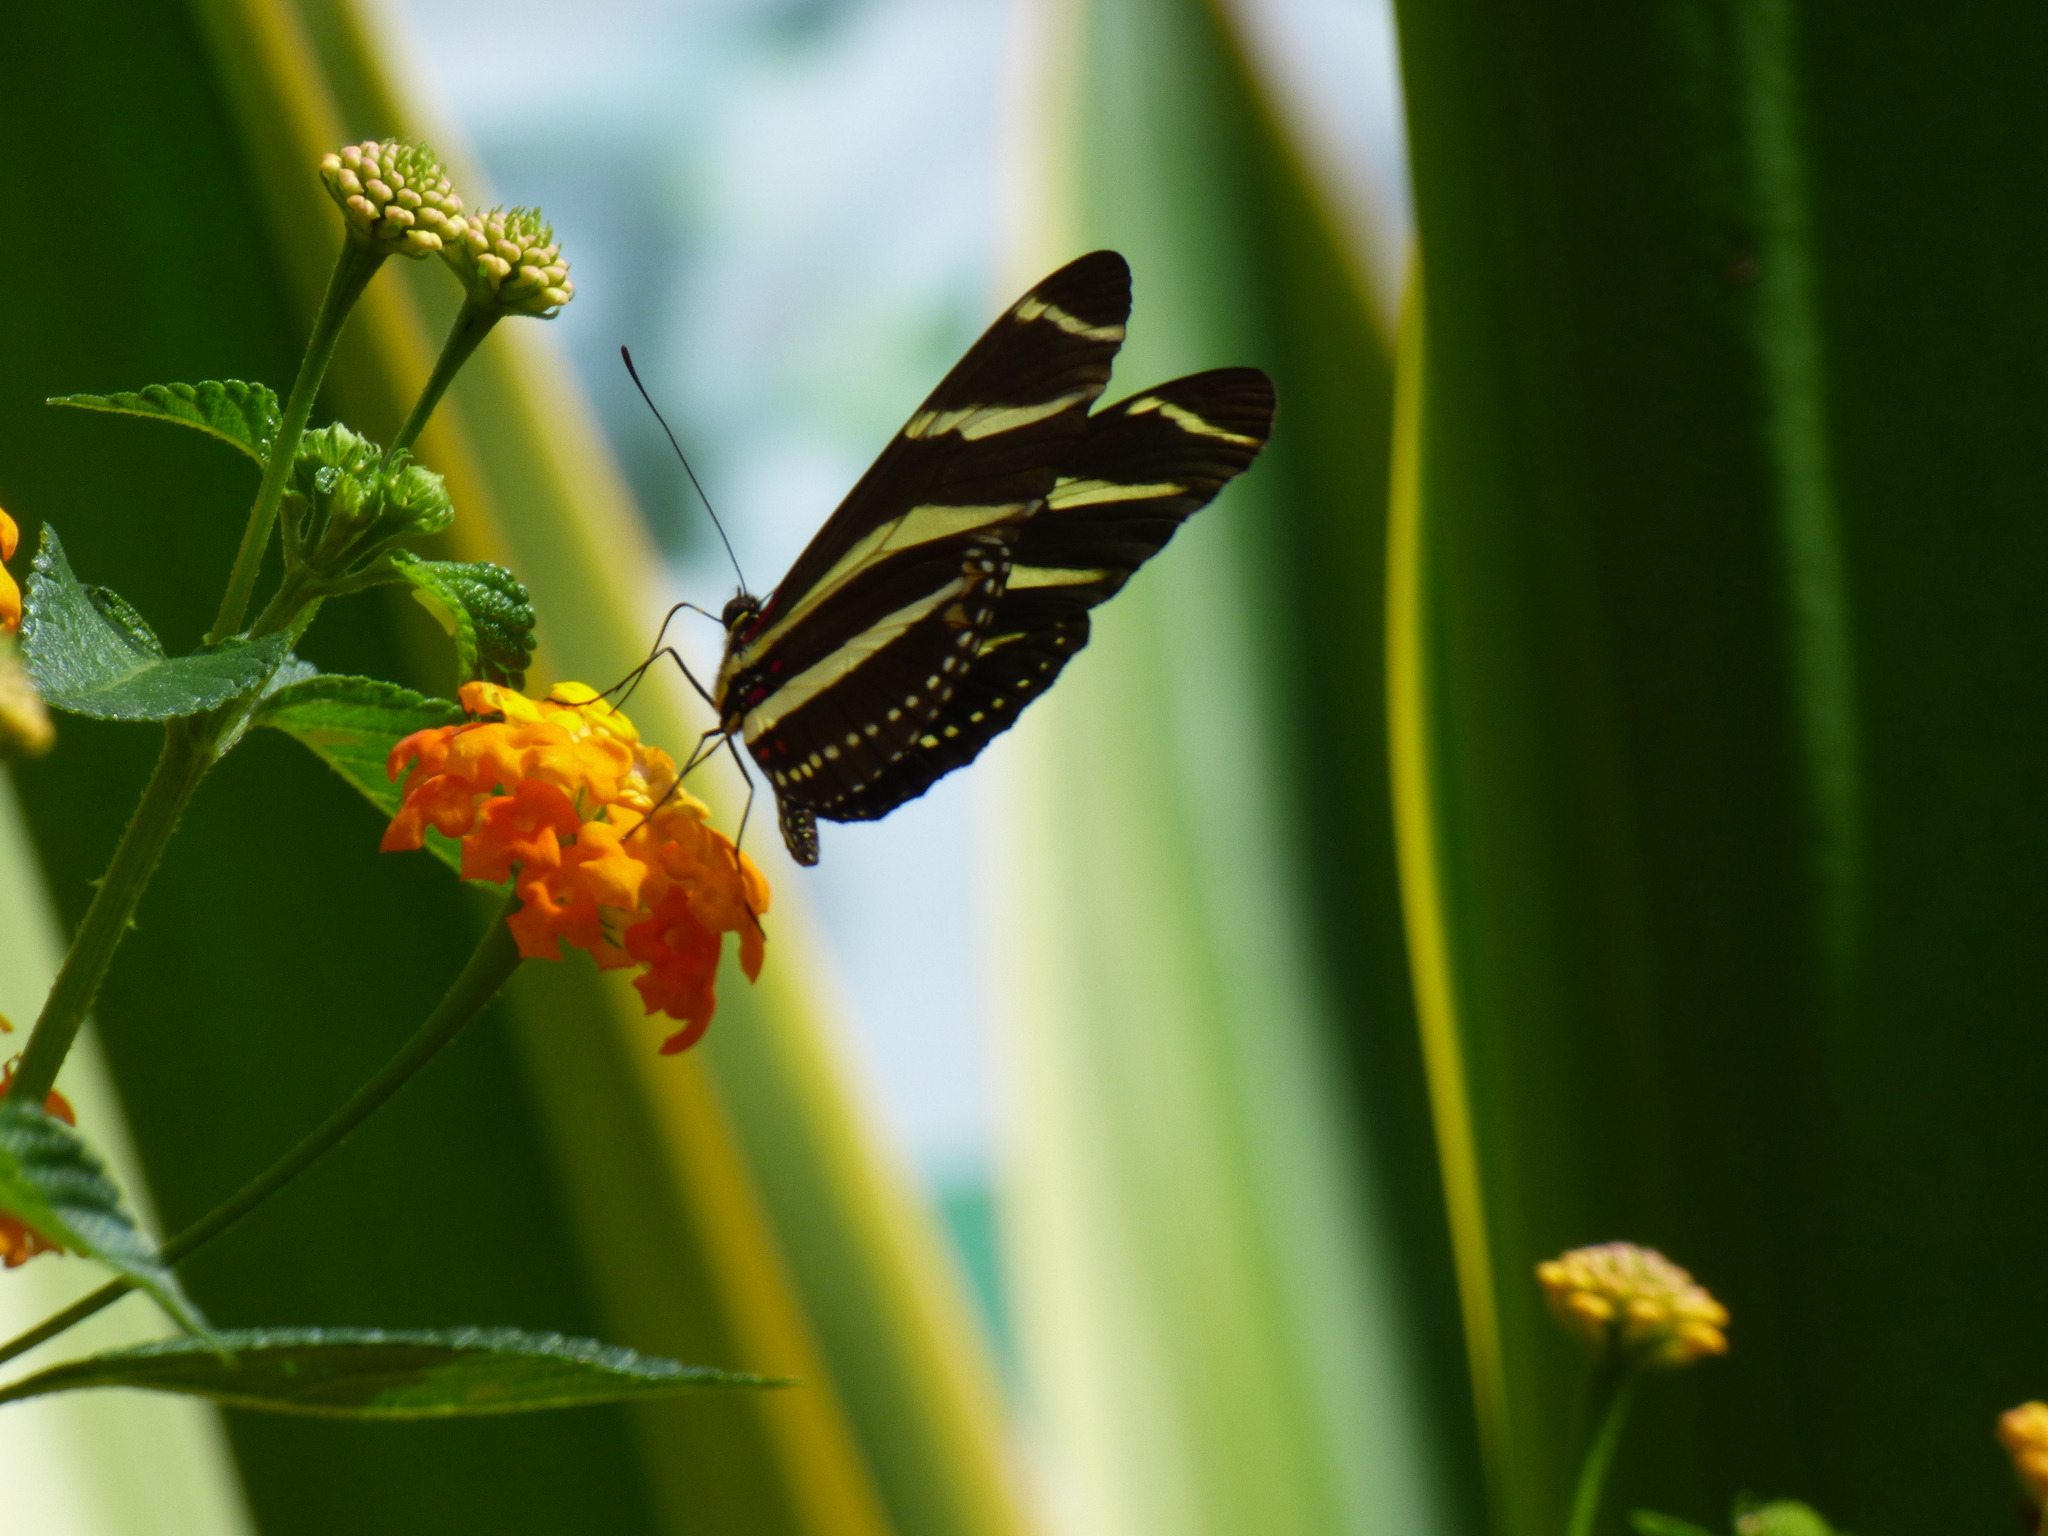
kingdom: Animalia
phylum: Arthropoda
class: Insecta
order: Lepidoptera
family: Nymphalidae
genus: Heliconius
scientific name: Heliconius charithonia
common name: Zebra long wing
